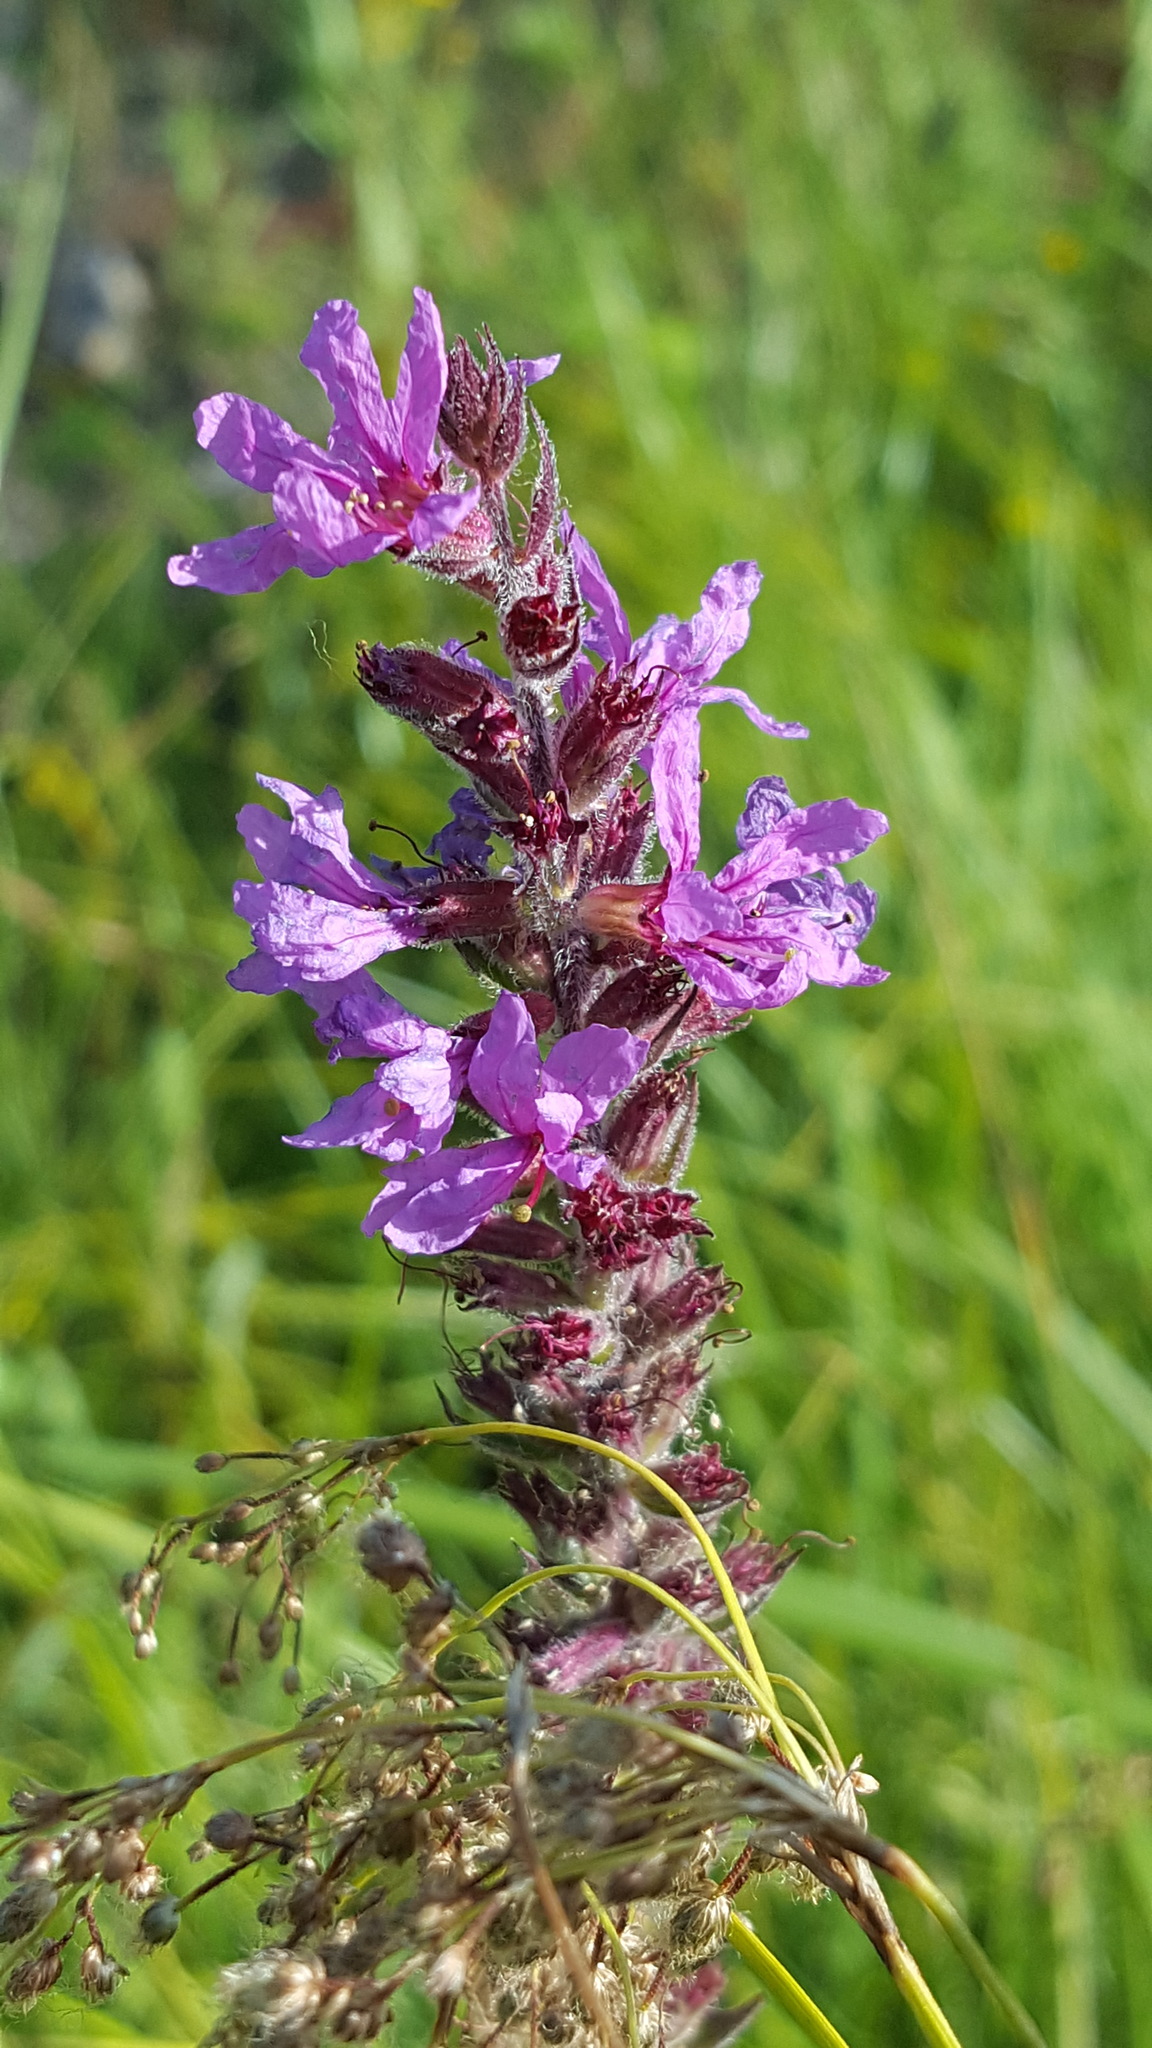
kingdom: Plantae
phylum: Tracheophyta
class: Magnoliopsida
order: Myrtales
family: Lythraceae
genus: Lythrum
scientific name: Lythrum salicaria
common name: Purple loosestrife
